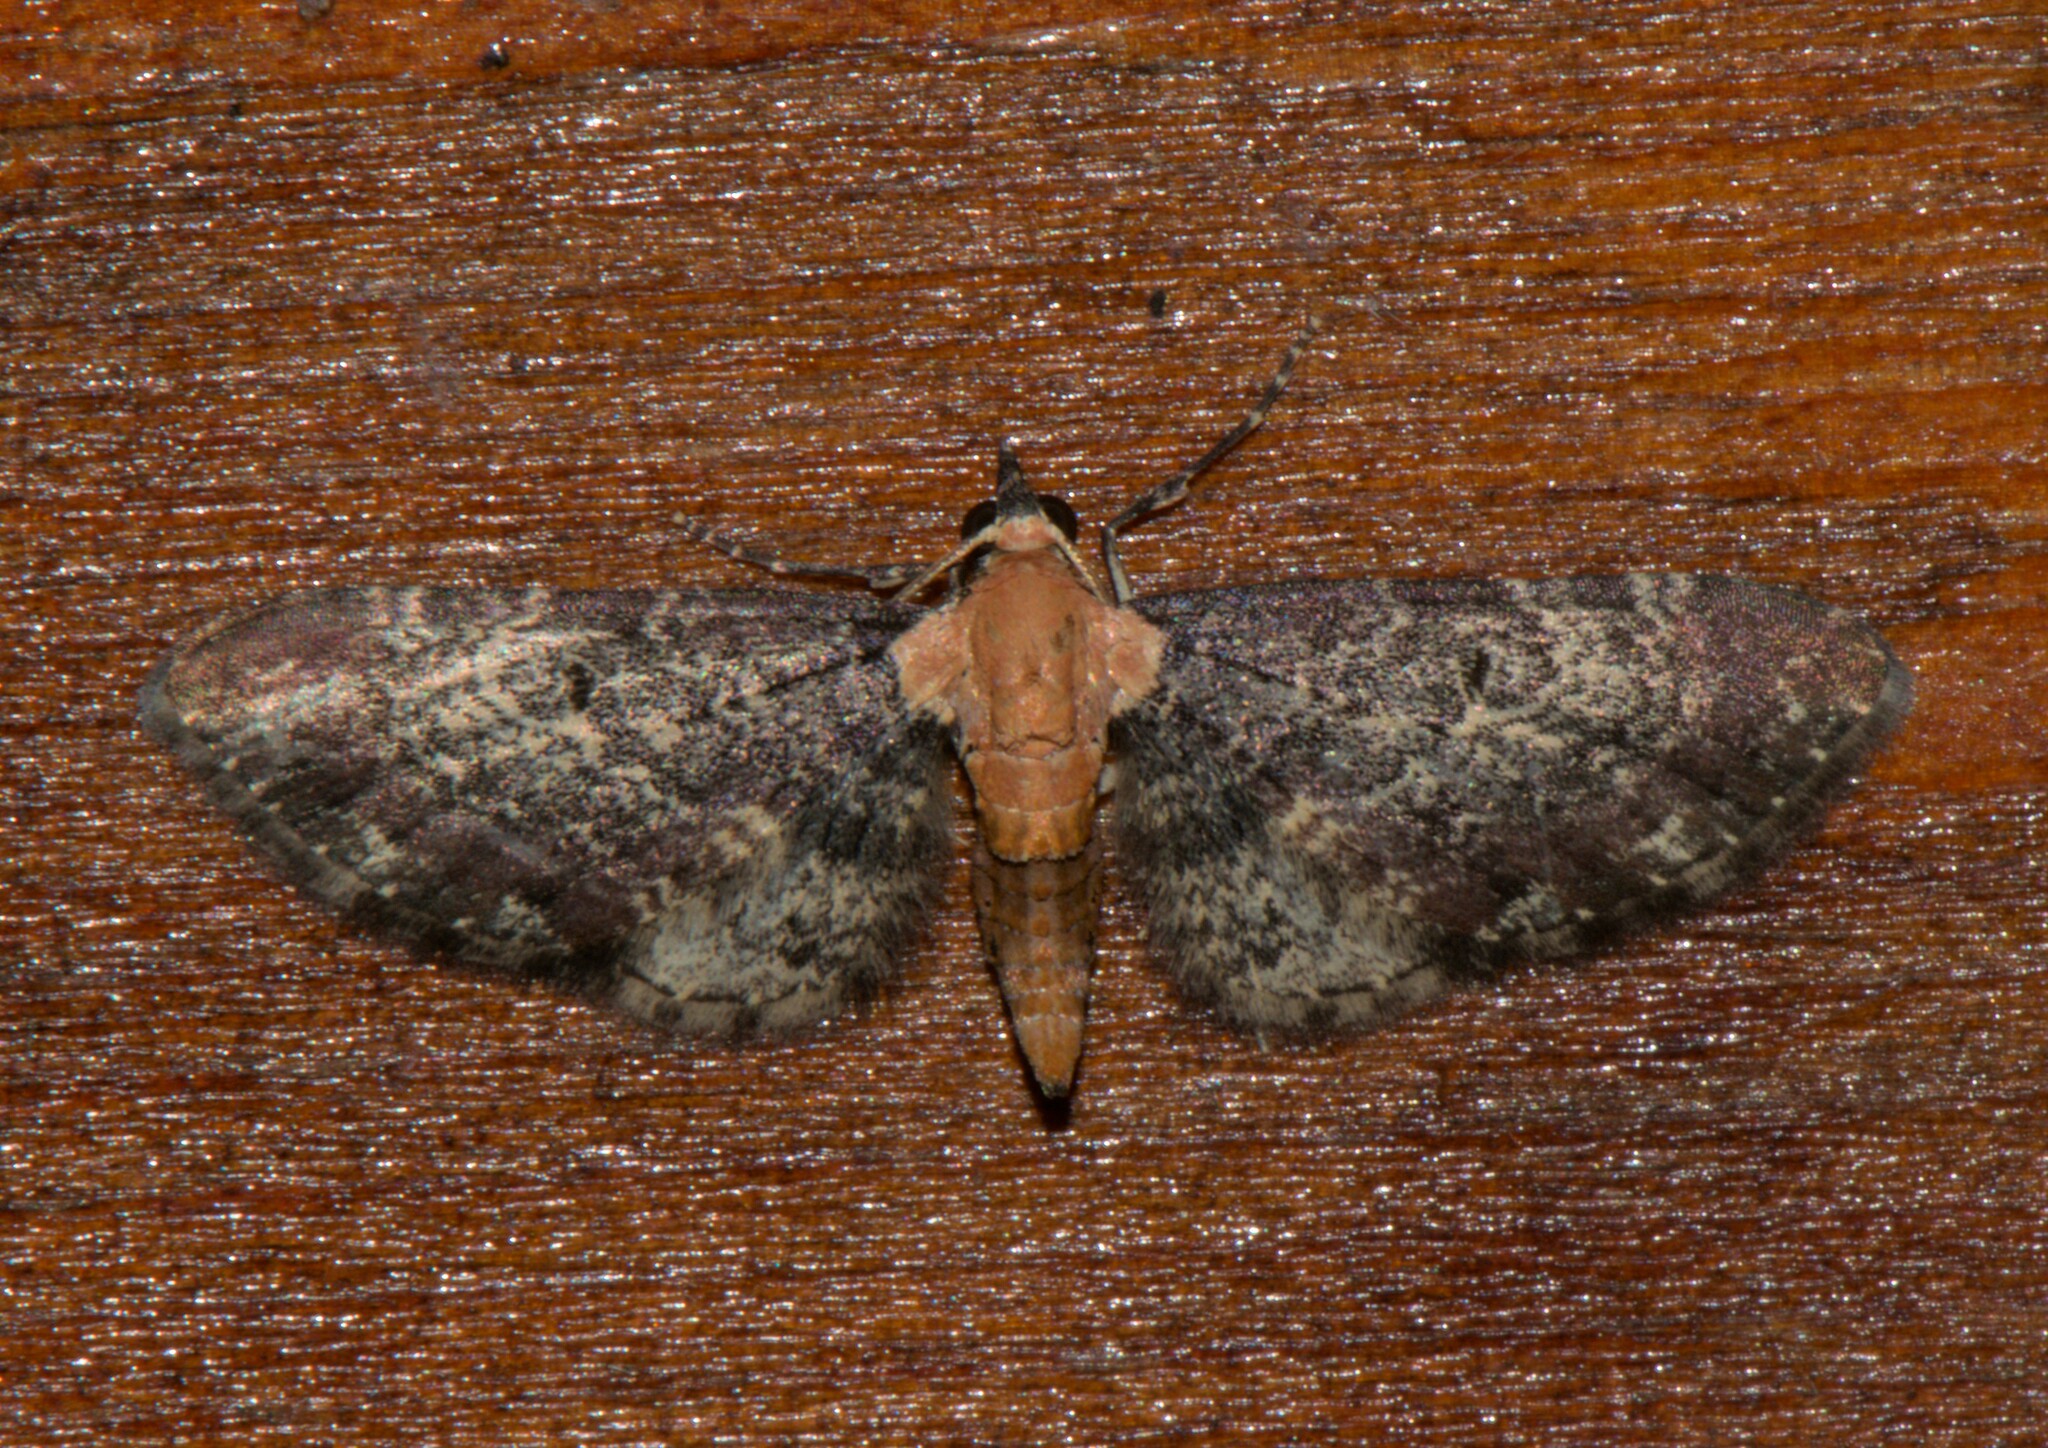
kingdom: Animalia
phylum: Arthropoda
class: Insecta
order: Lepidoptera
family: Geometridae
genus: Eupithecia
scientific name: Eupithecia rubridorsata
